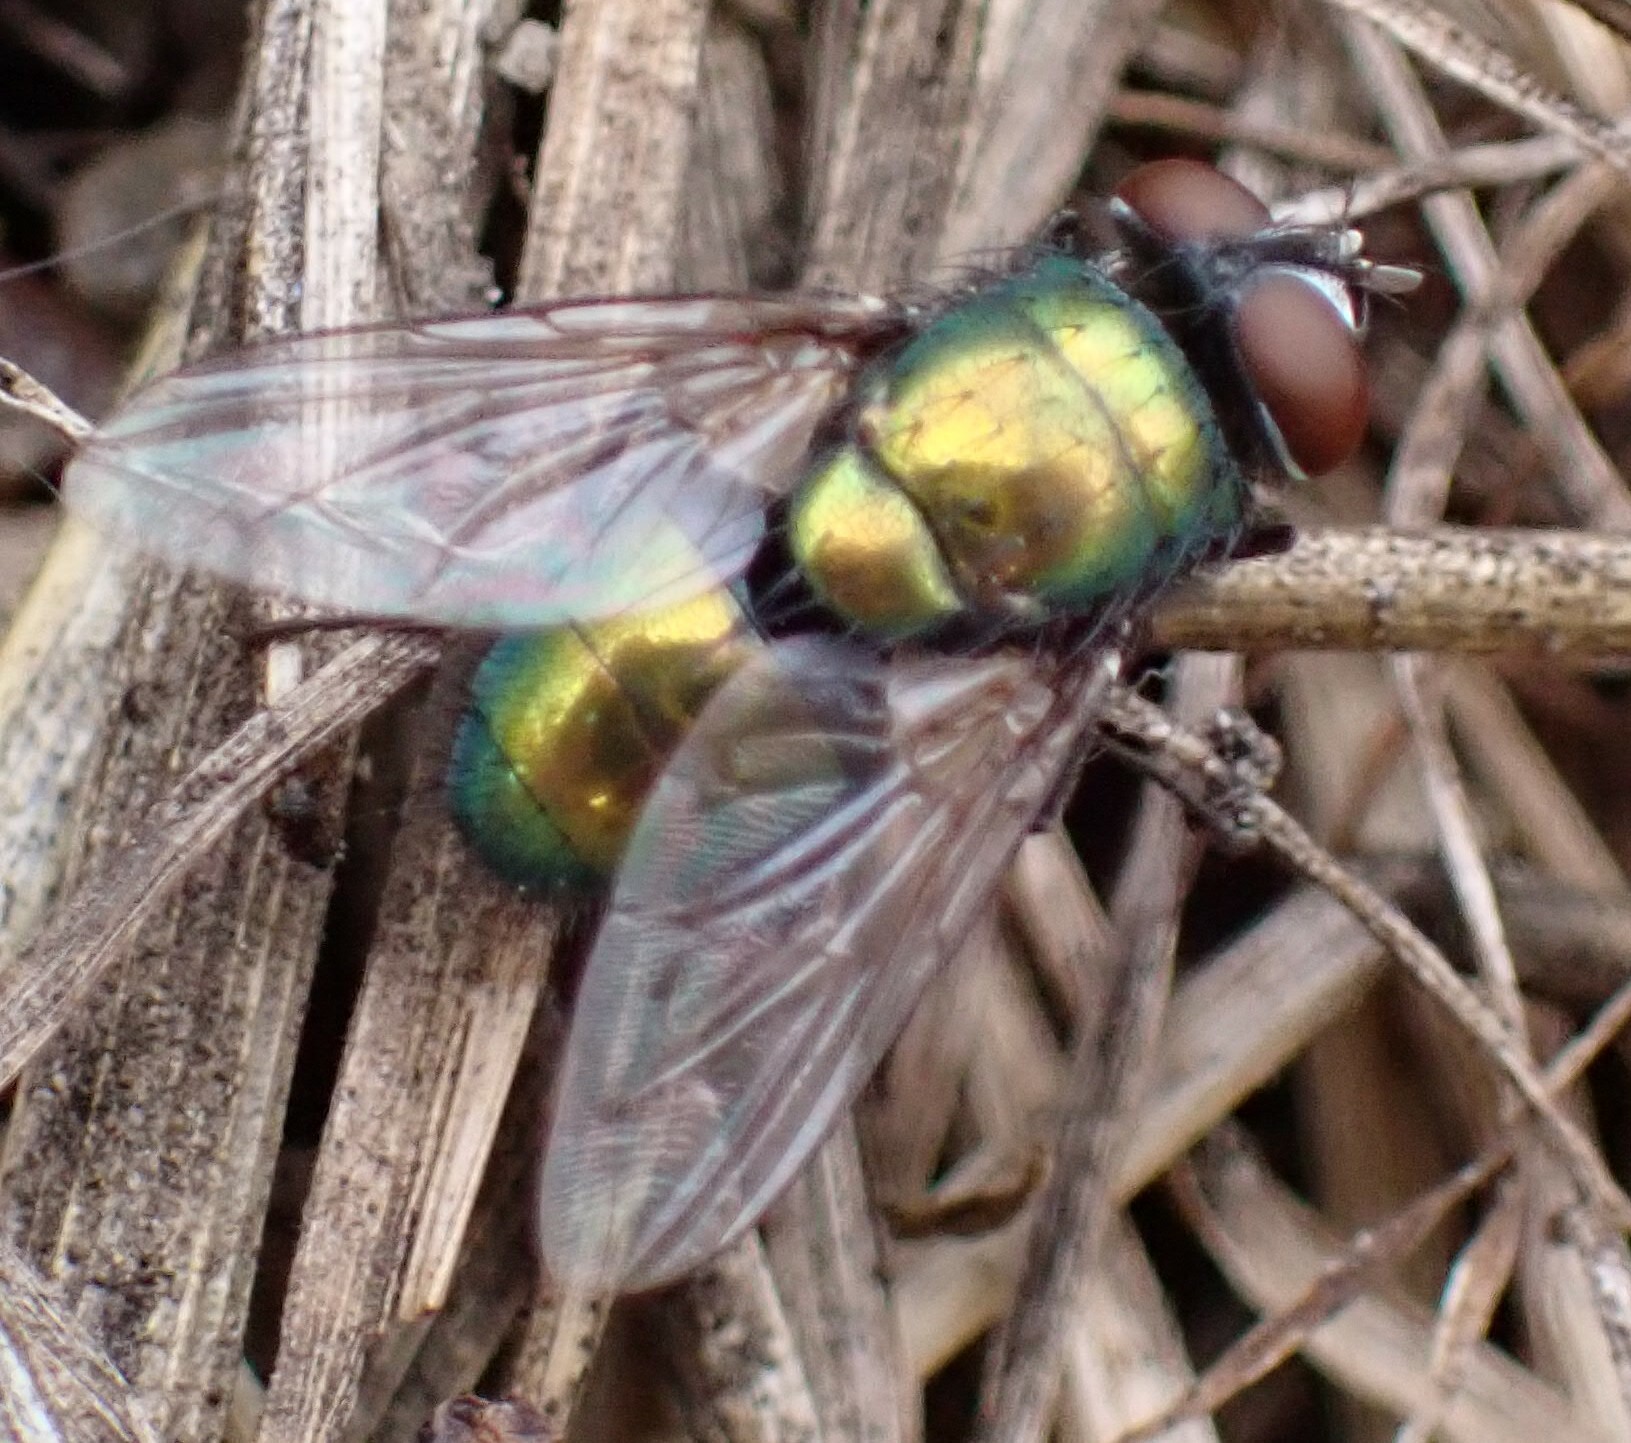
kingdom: Animalia
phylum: Arthropoda
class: Insecta
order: Diptera
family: Calliphoridae
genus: Lucilia
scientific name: Lucilia
